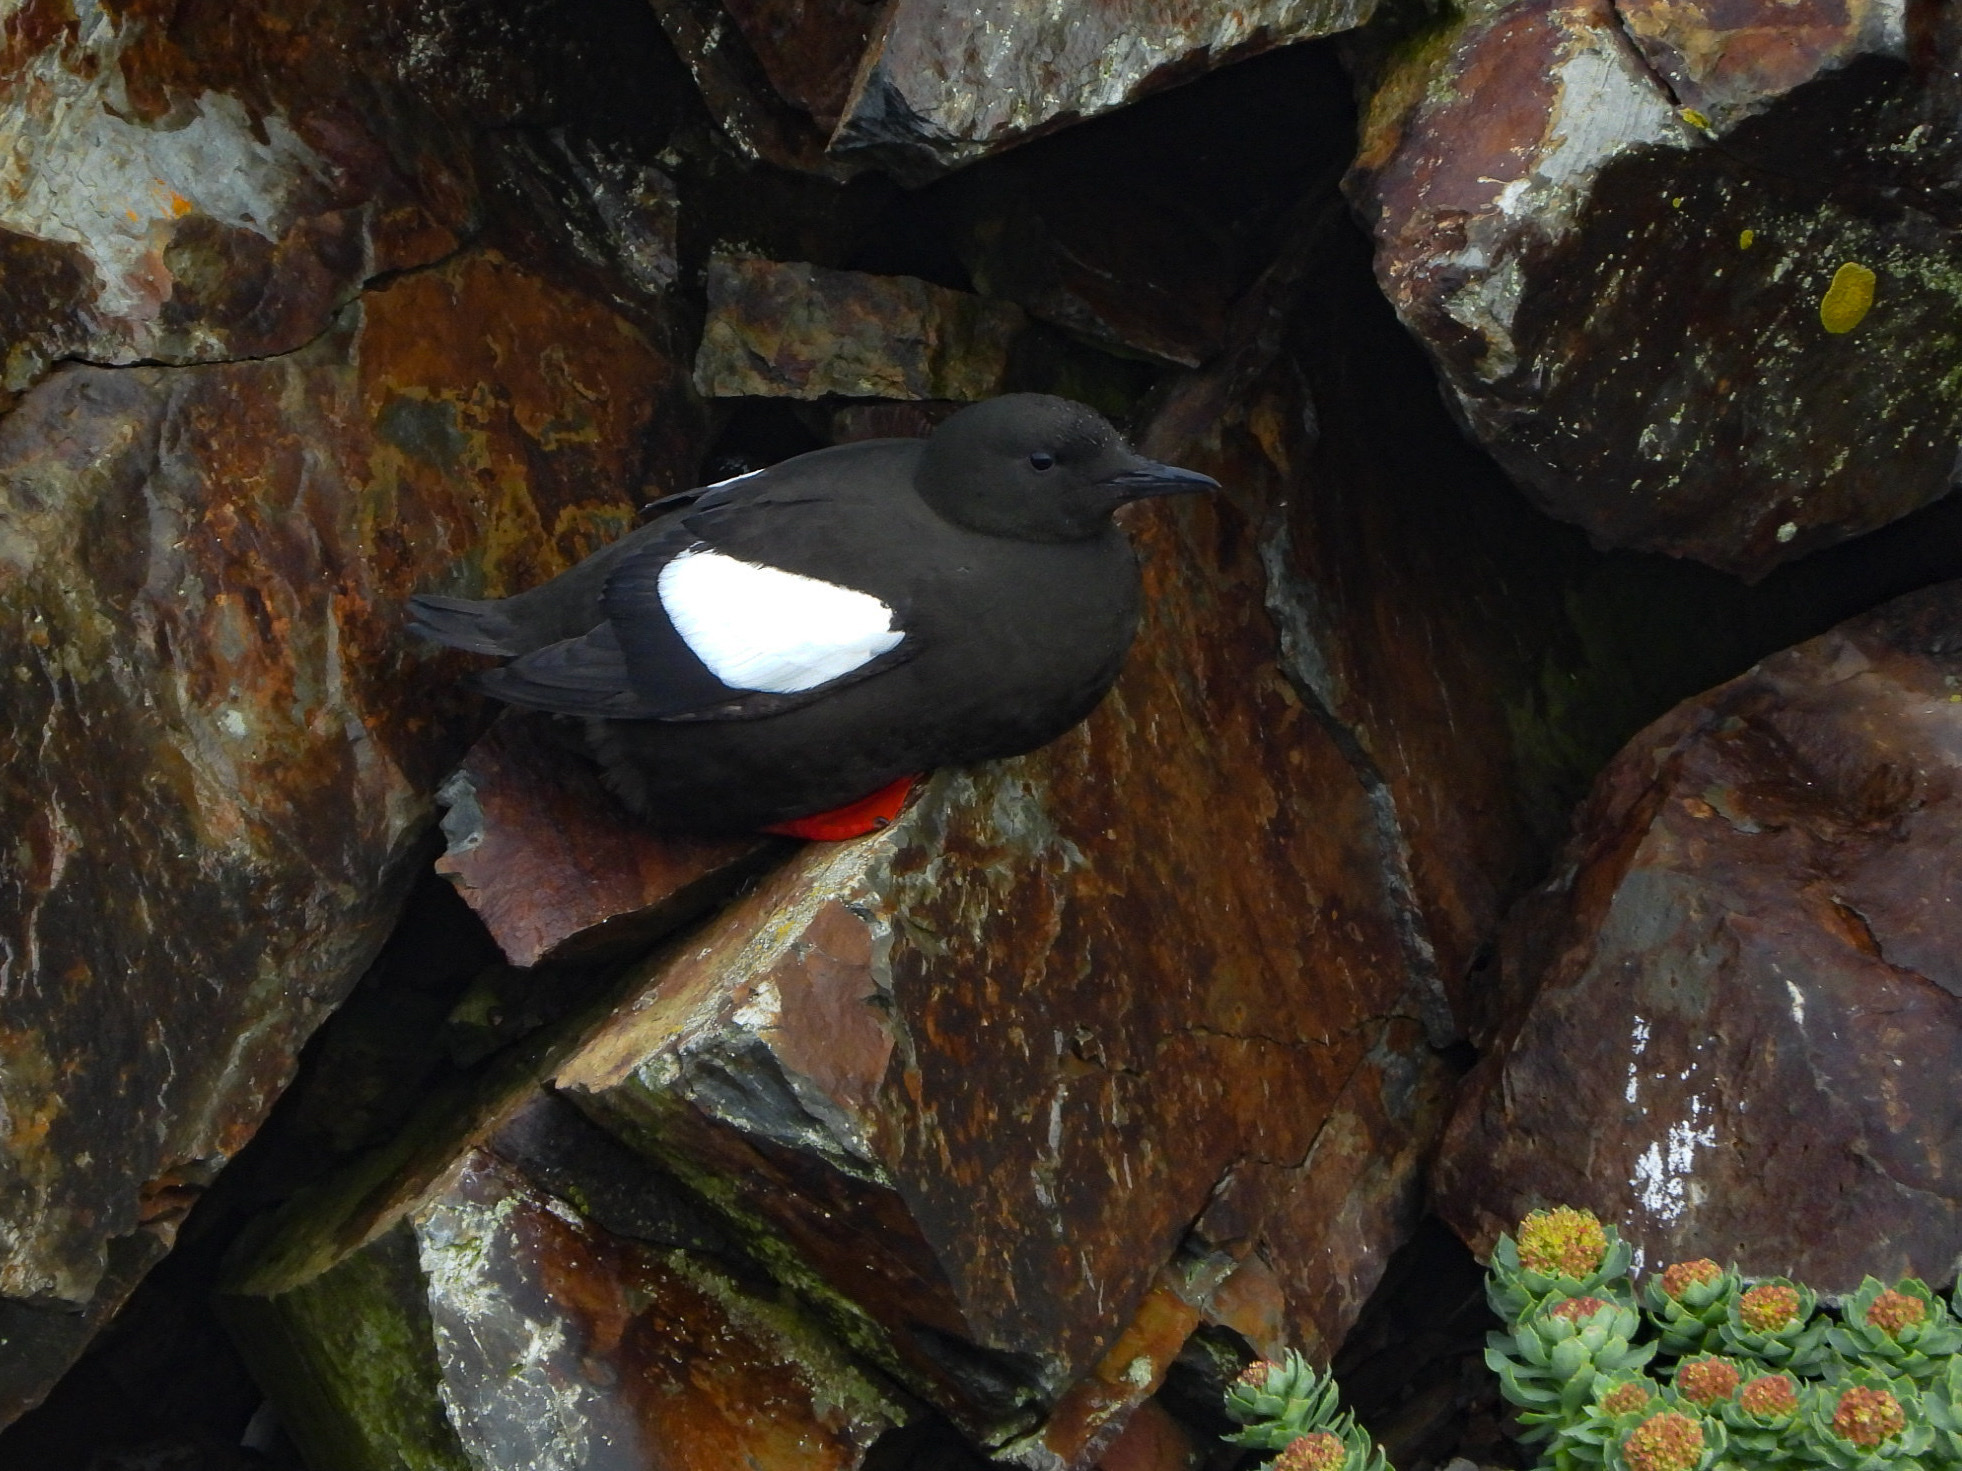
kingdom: Animalia
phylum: Chordata
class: Aves
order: Charadriiformes
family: Alcidae
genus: Cepphus
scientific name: Cepphus grylle
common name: Black guillemot
